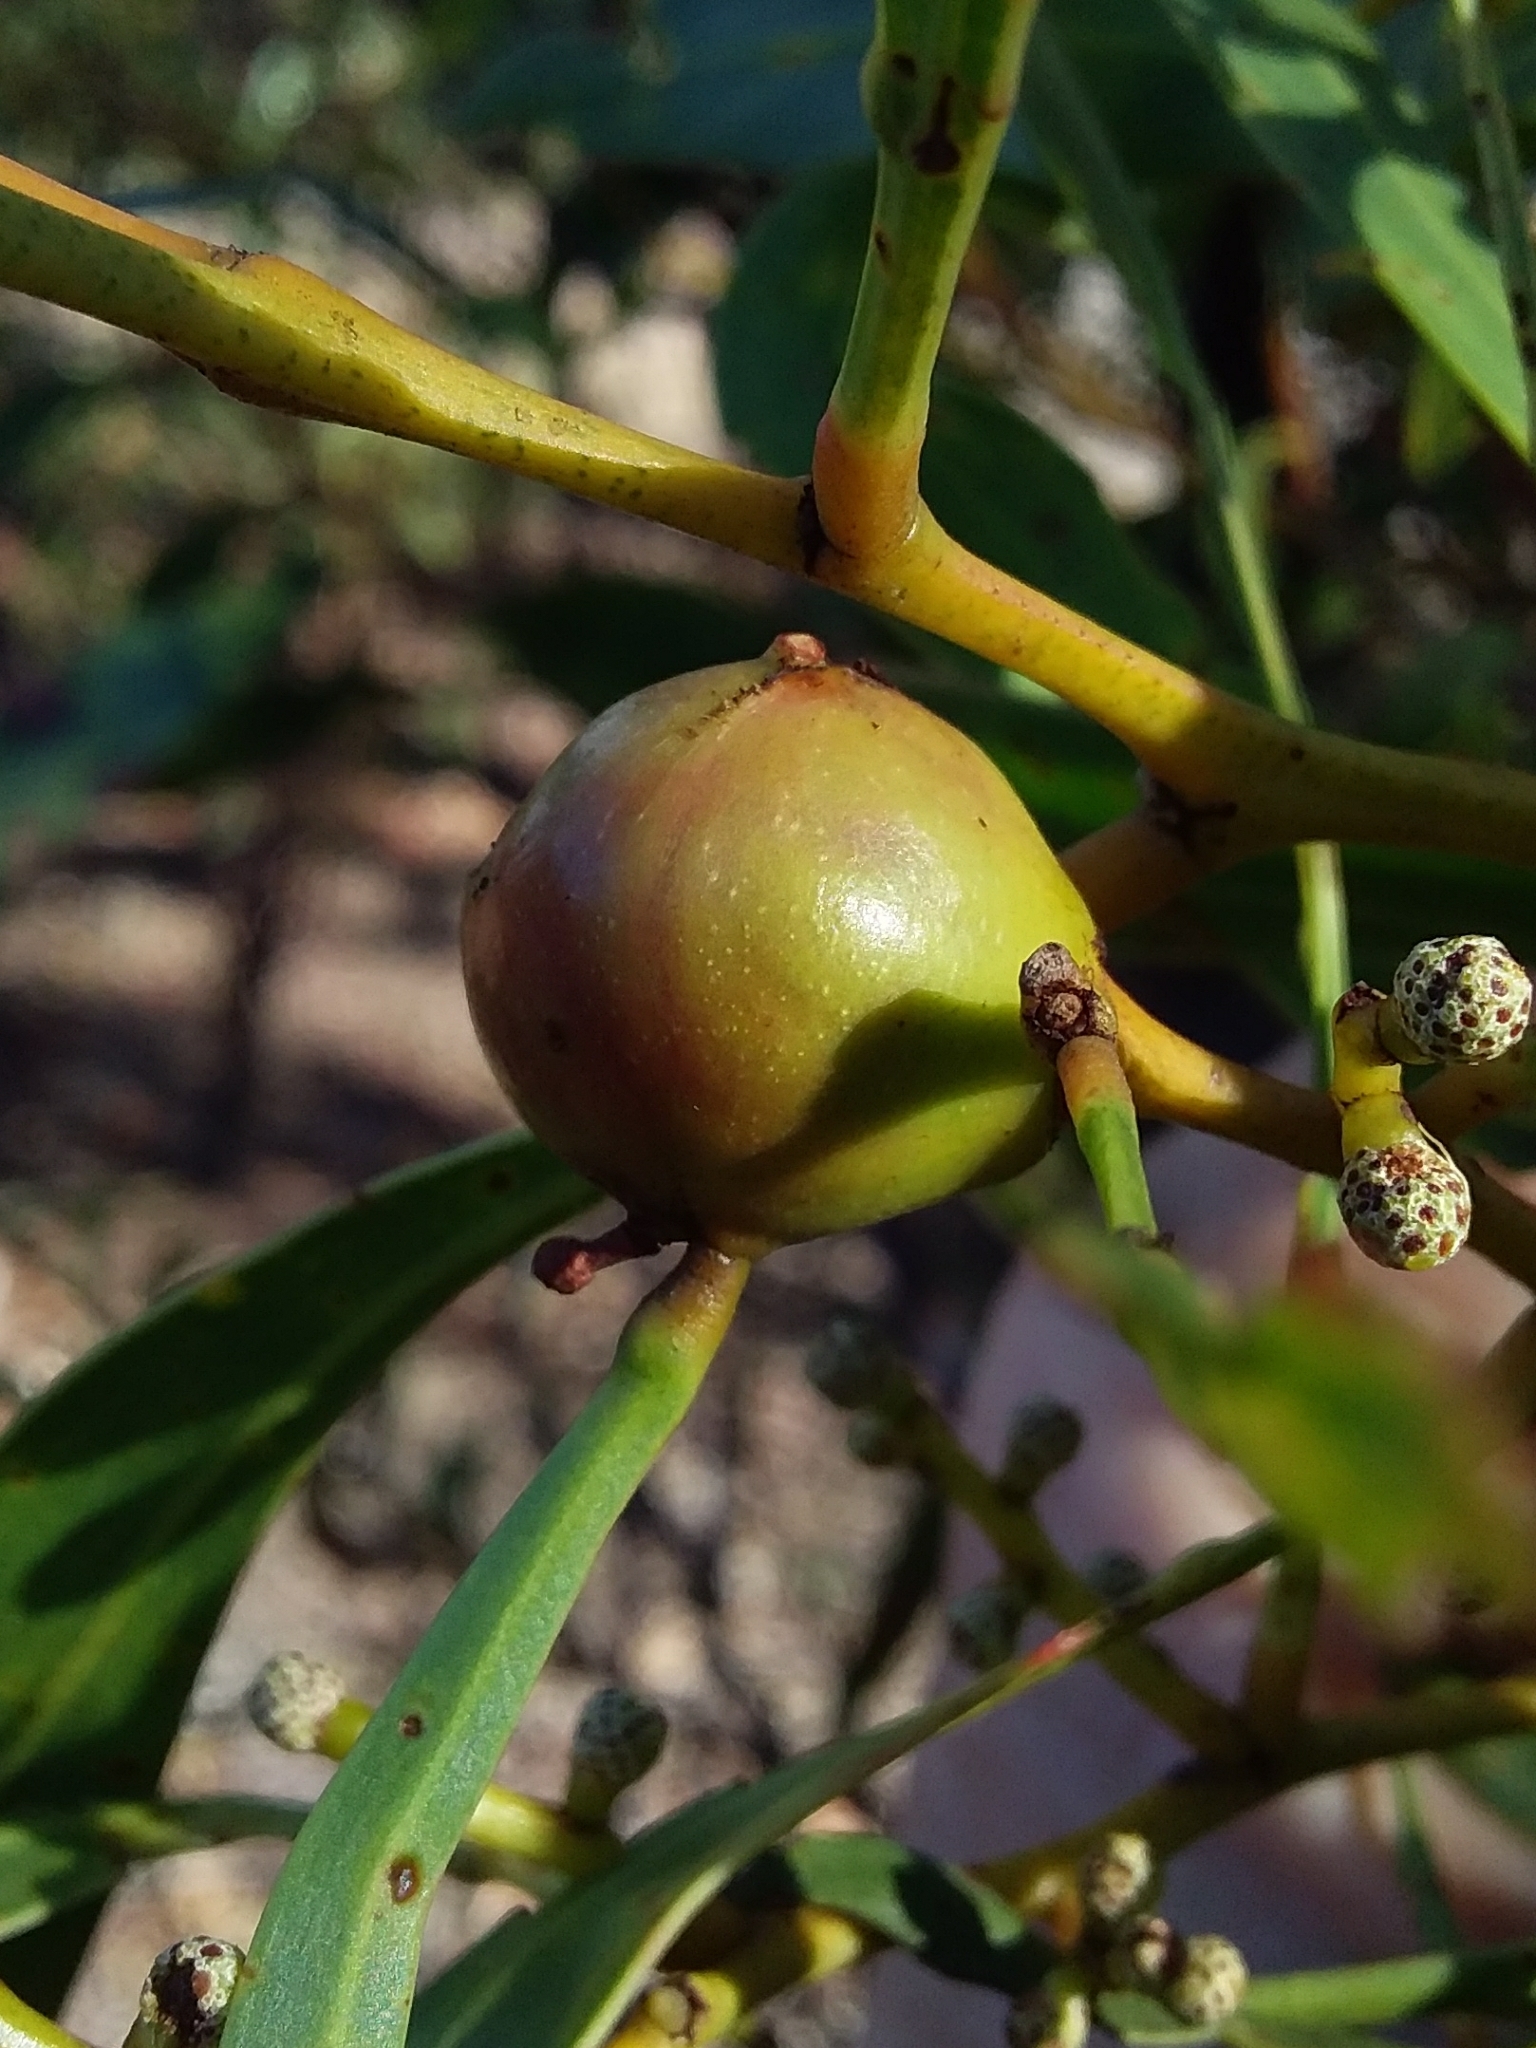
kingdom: Animalia
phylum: Arthropoda
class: Insecta
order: Hymenoptera
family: Pteromalidae
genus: Trichilogaster
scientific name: Trichilogaster signiventris
